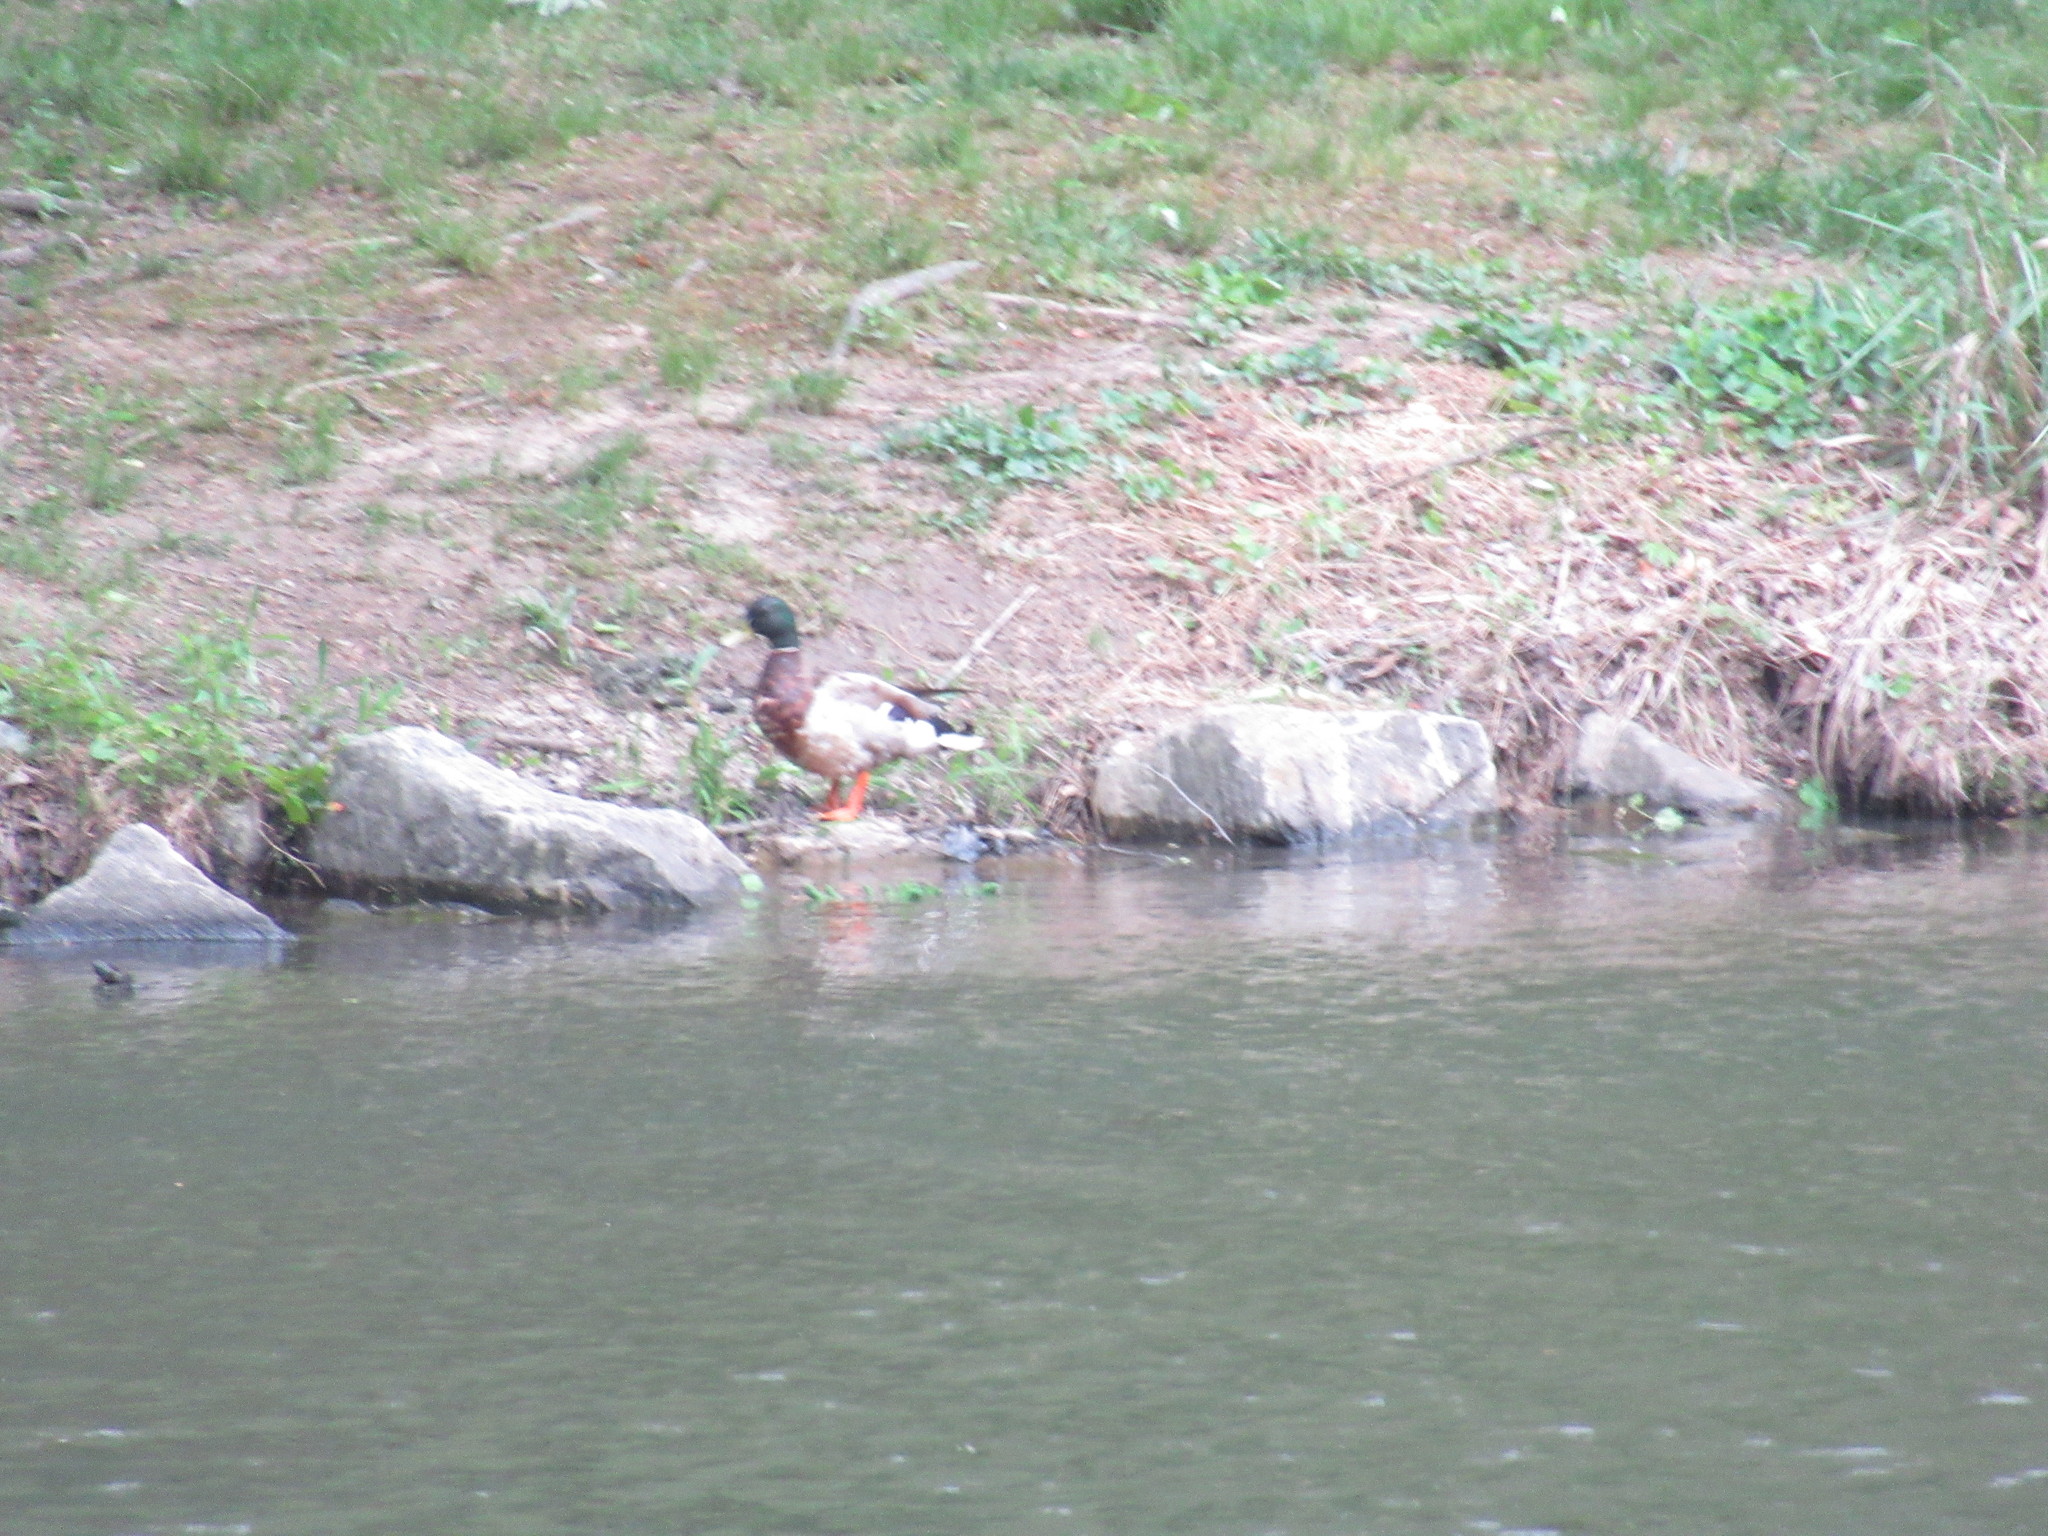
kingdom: Animalia
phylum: Chordata
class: Aves
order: Anseriformes
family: Anatidae
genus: Anas
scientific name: Anas platyrhynchos
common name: Mallard
